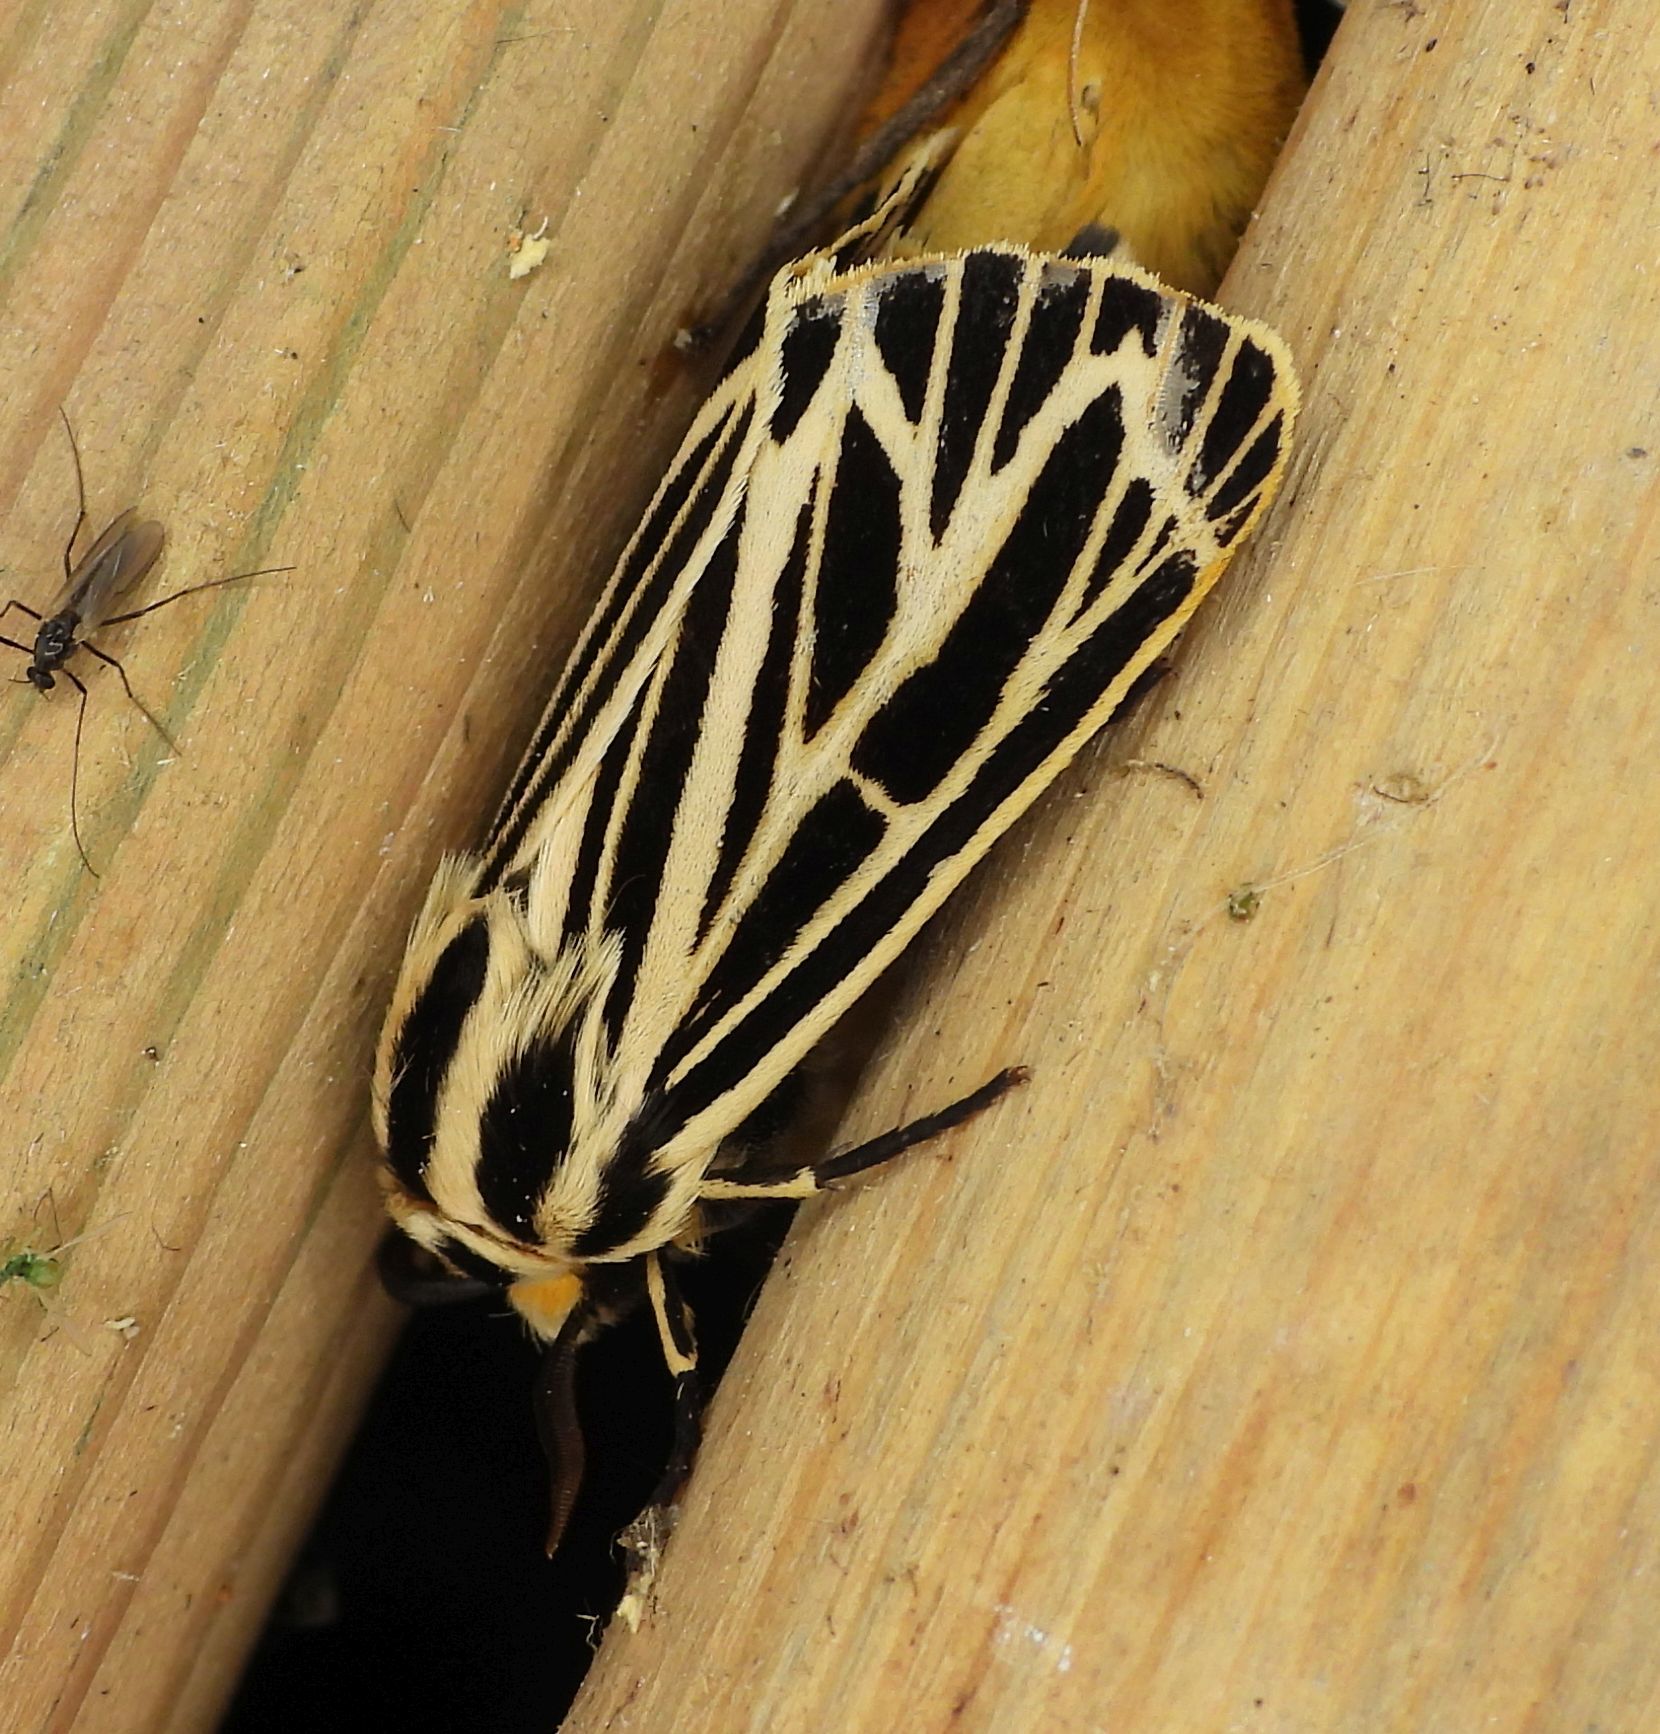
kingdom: Animalia
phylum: Arthropoda
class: Insecta
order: Lepidoptera
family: Erebidae
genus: Grammia
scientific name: Grammia virguncula
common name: Little tiger moth
